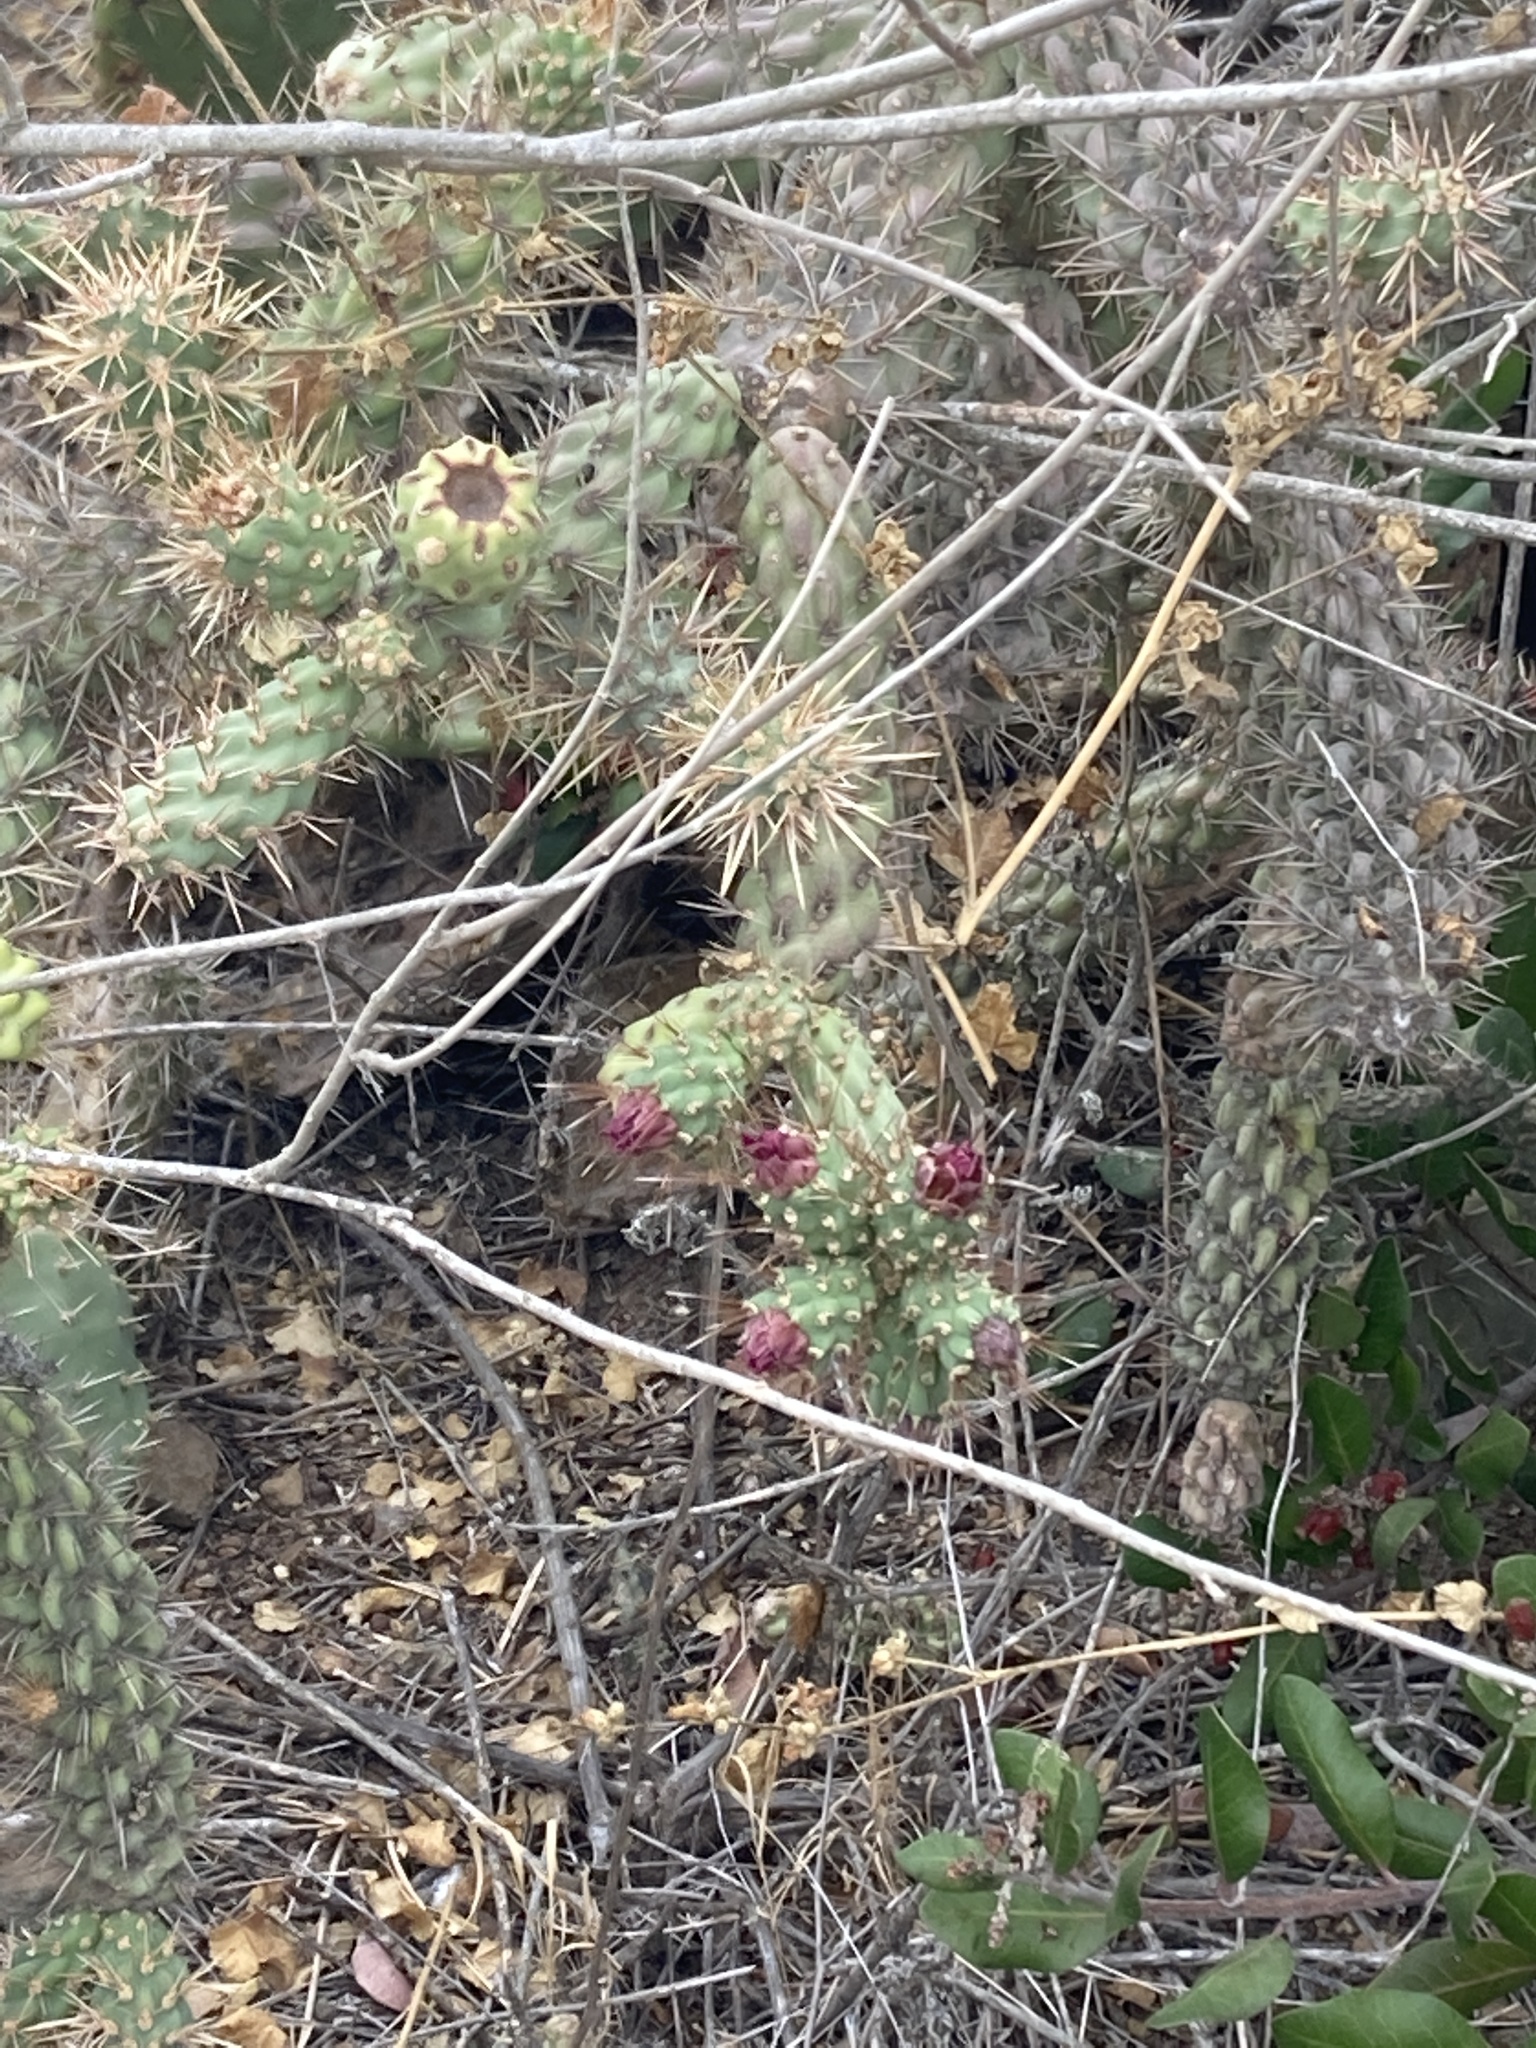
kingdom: Plantae
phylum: Tracheophyta
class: Magnoliopsida
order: Caryophyllales
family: Cactaceae
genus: Cylindropuntia
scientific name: Cylindropuntia prolifera
